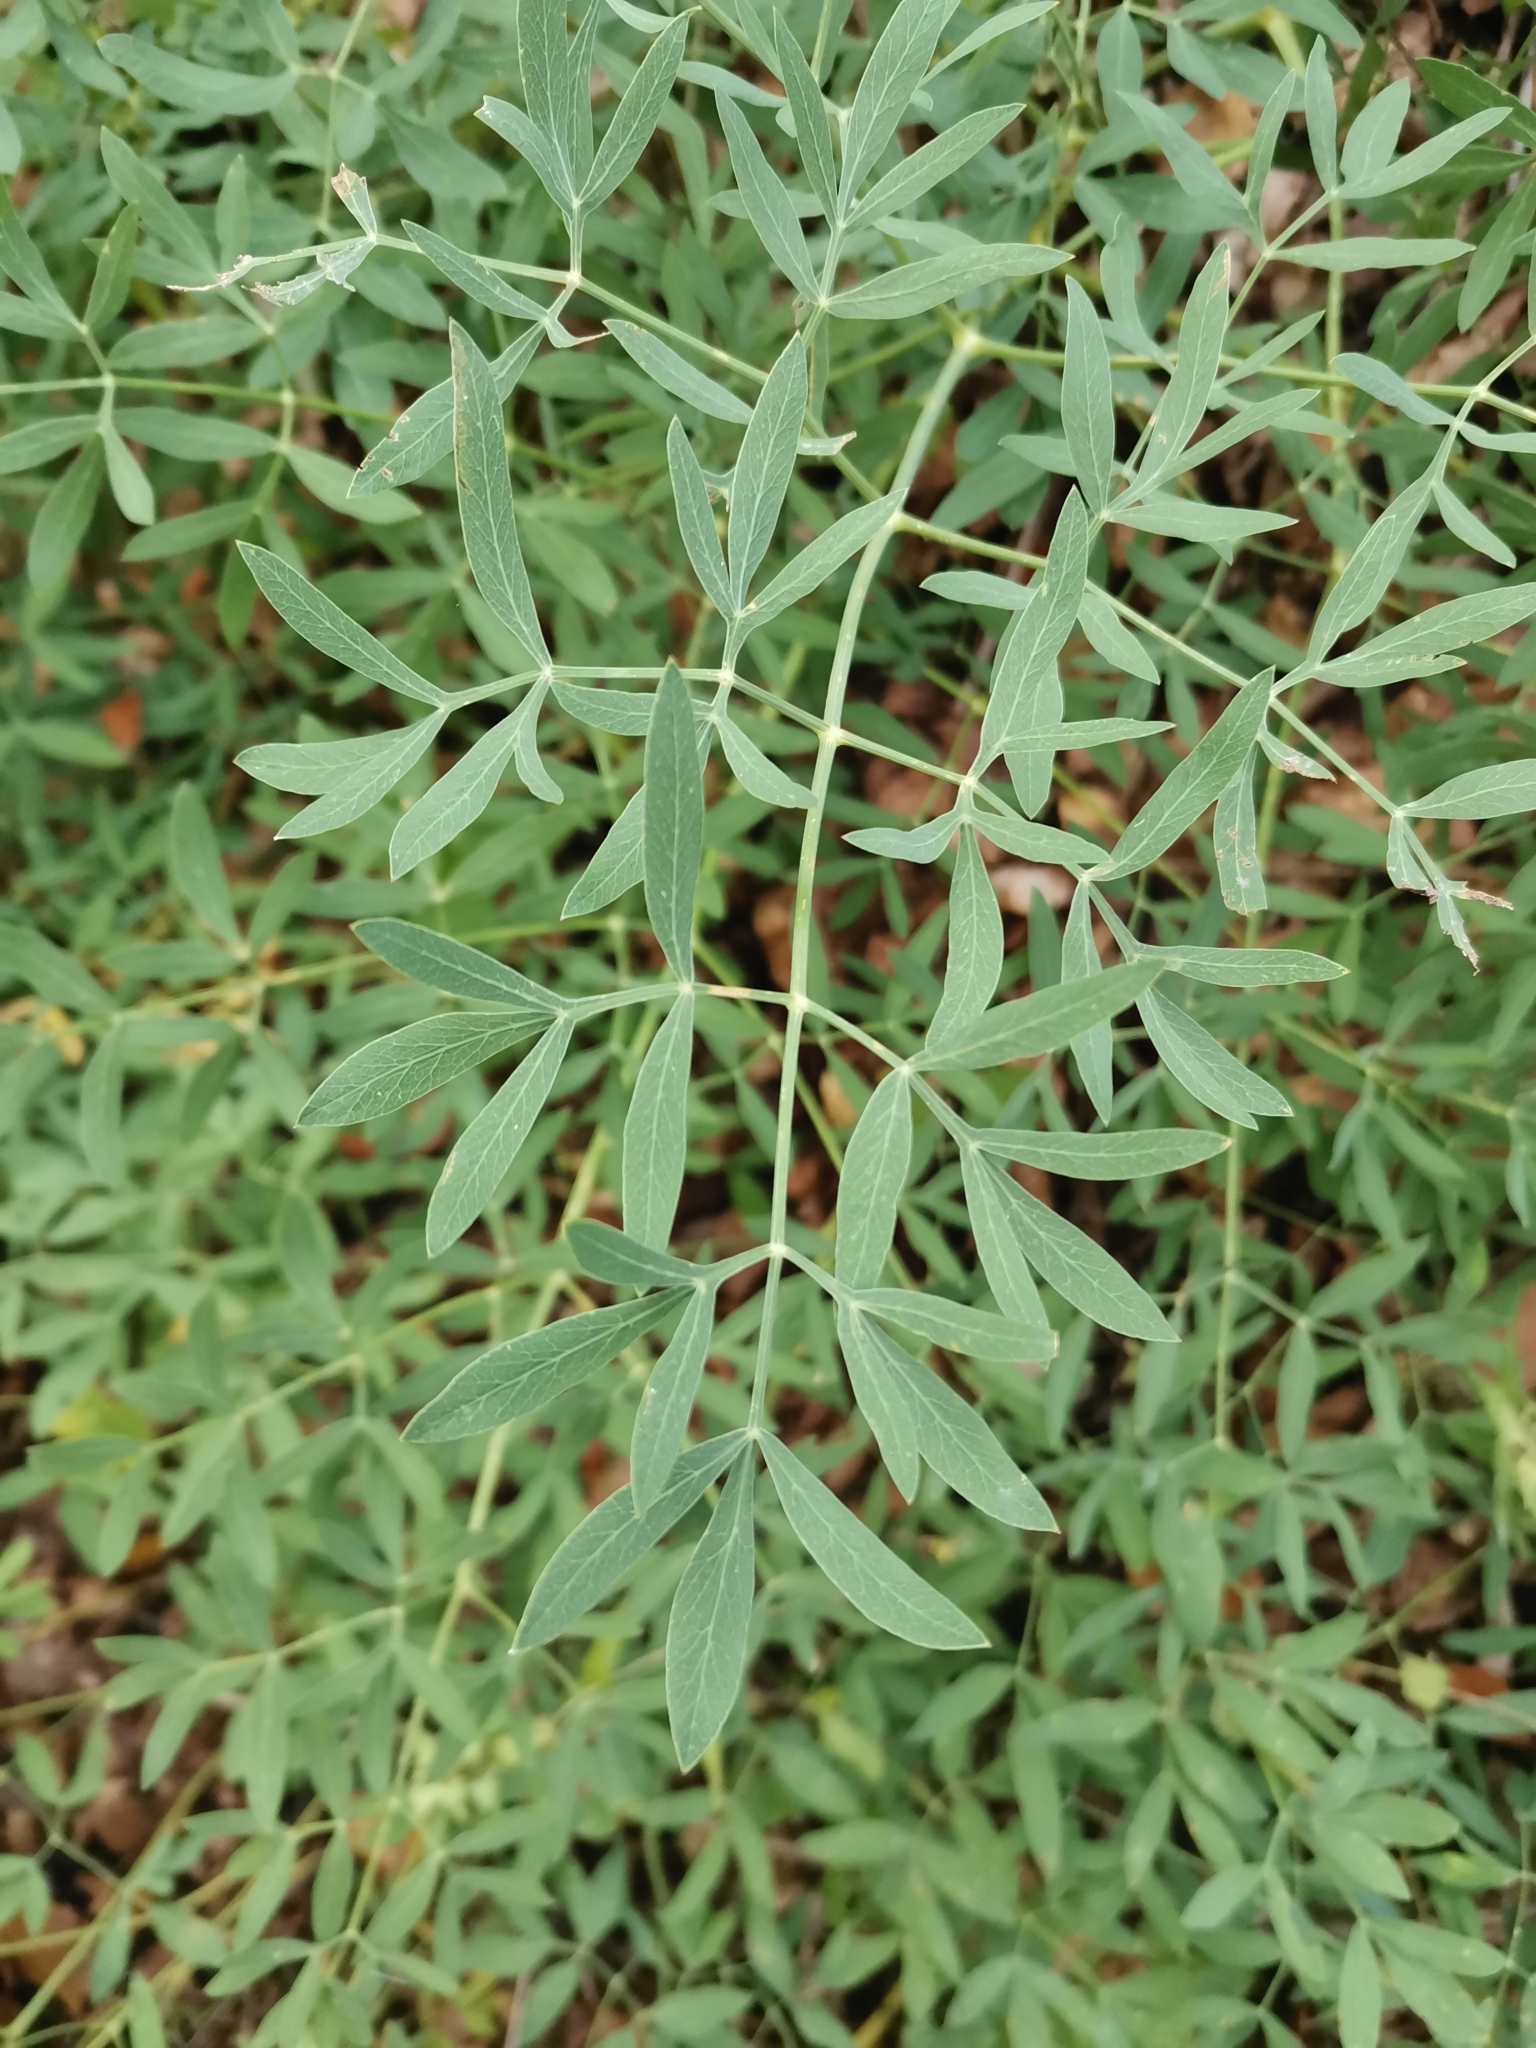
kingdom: Plantae
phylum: Tracheophyta
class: Magnoliopsida
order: Apiales
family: Apiaceae
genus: Siler
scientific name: Siler montanum
